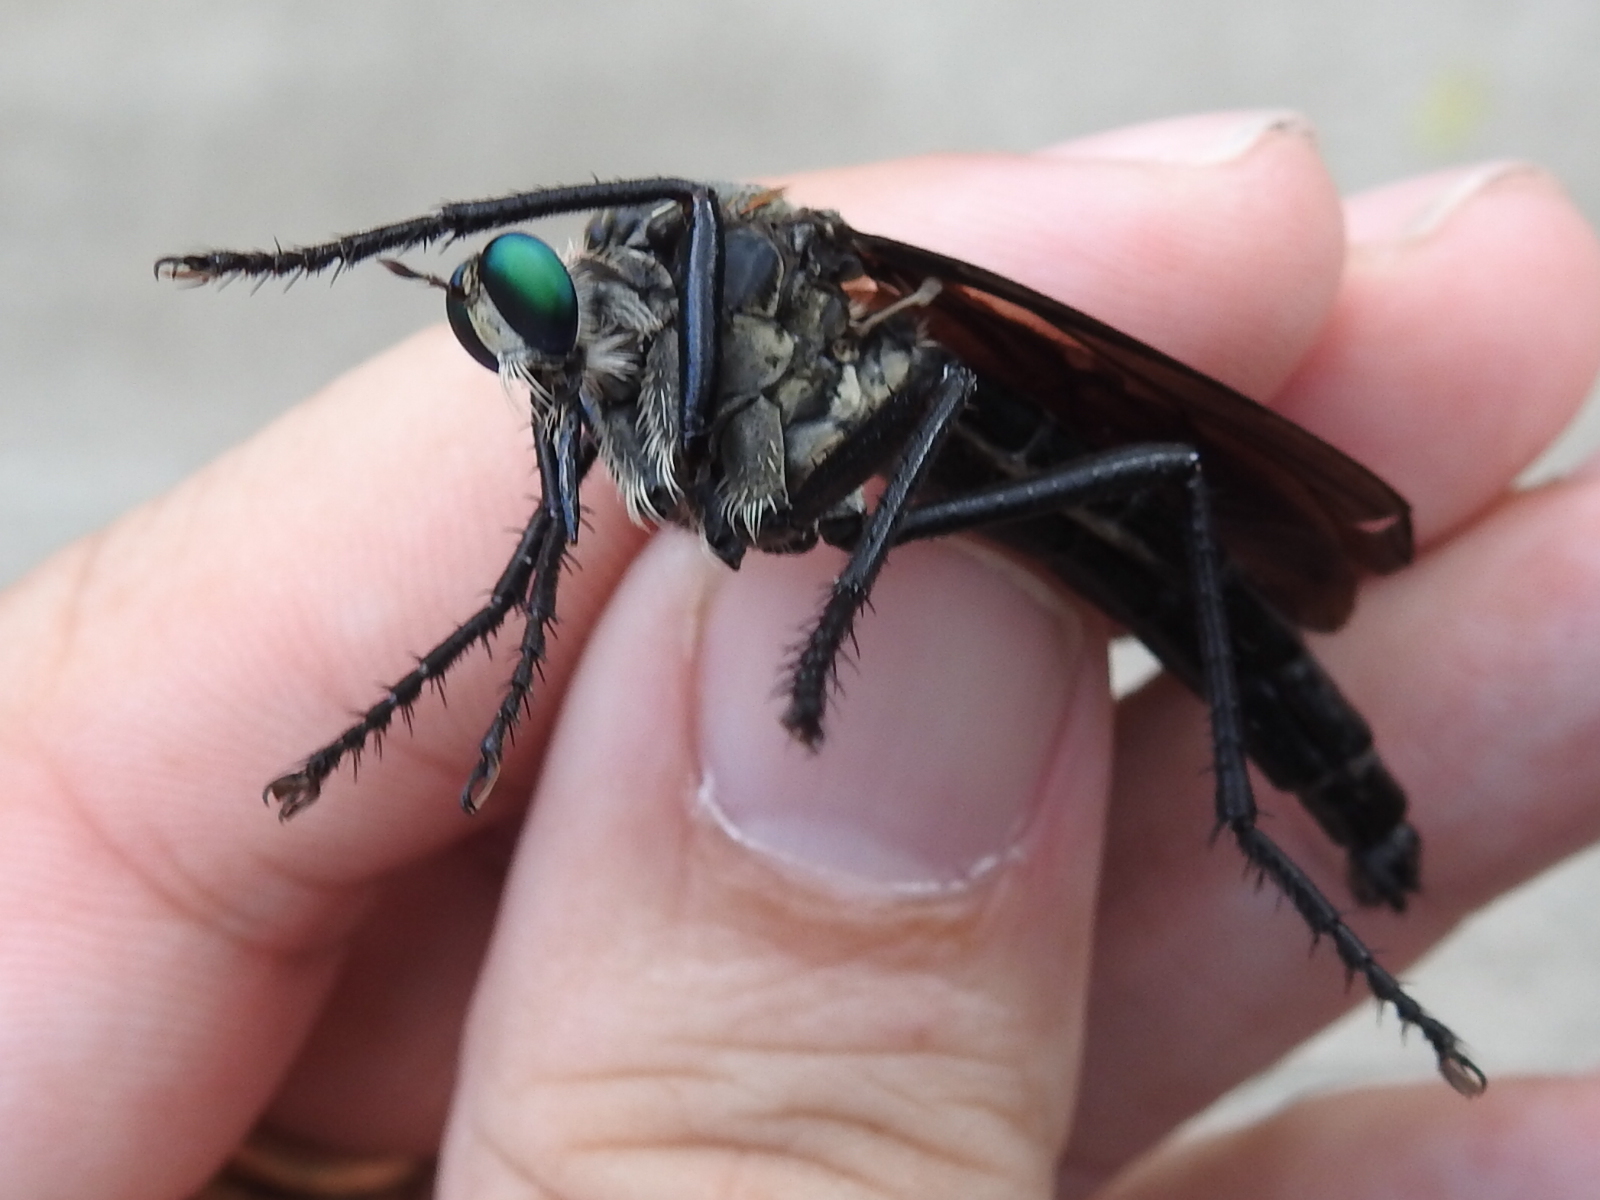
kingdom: Animalia
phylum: Arthropoda
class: Insecta
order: Diptera
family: Asilidae
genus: Microstylum
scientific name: Microstylum morosum
